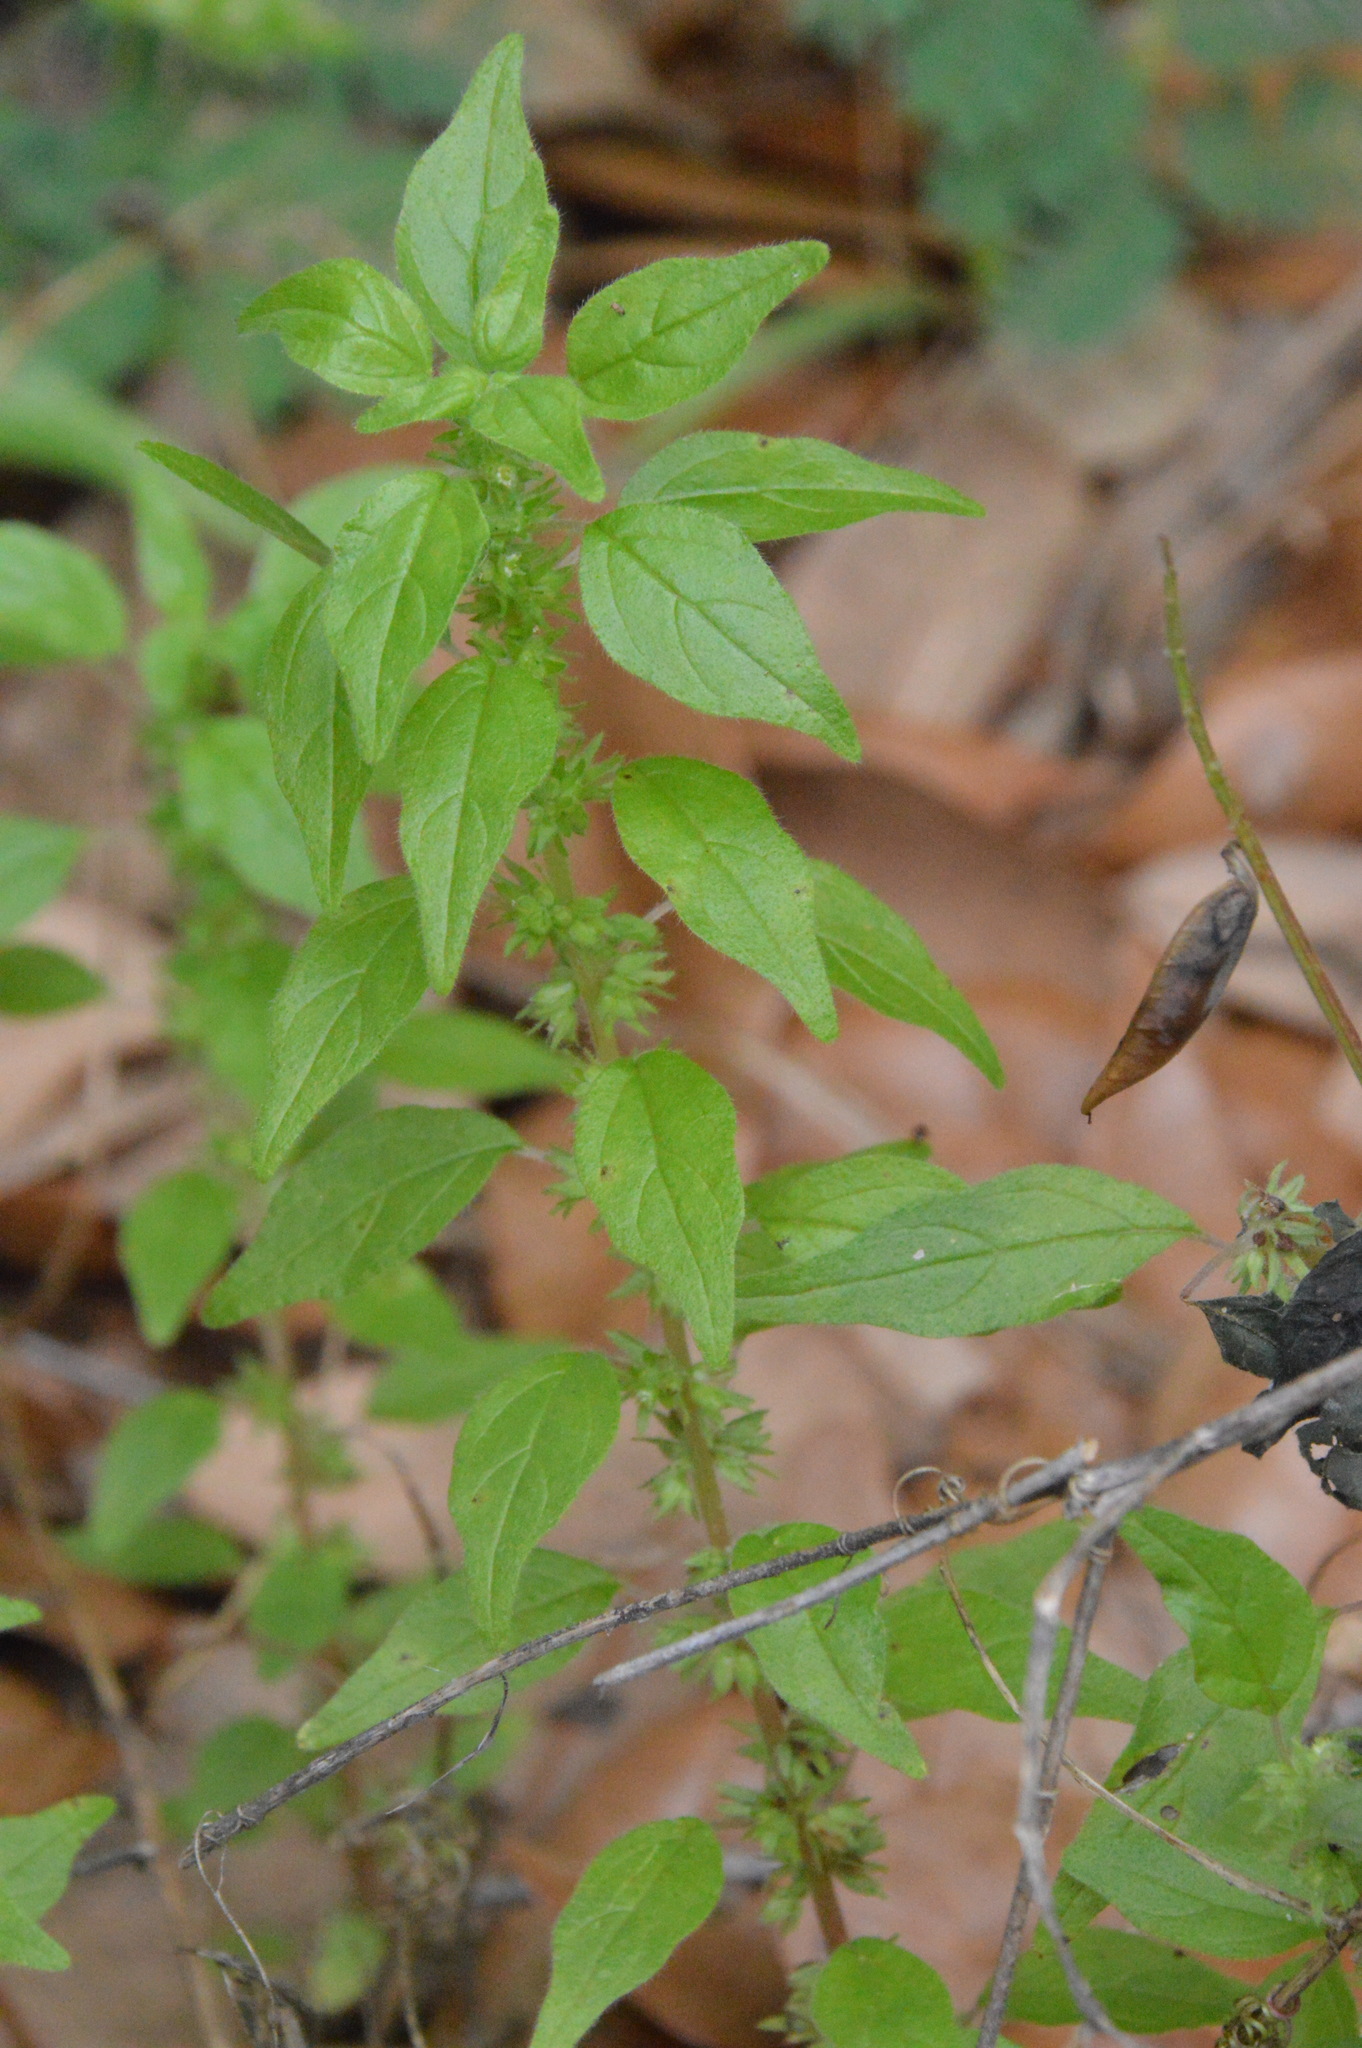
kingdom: Plantae
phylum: Tracheophyta
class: Magnoliopsida
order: Rosales
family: Urticaceae
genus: Parietaria
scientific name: Parietaria pensylvanica
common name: Pennsylvania pellitory
